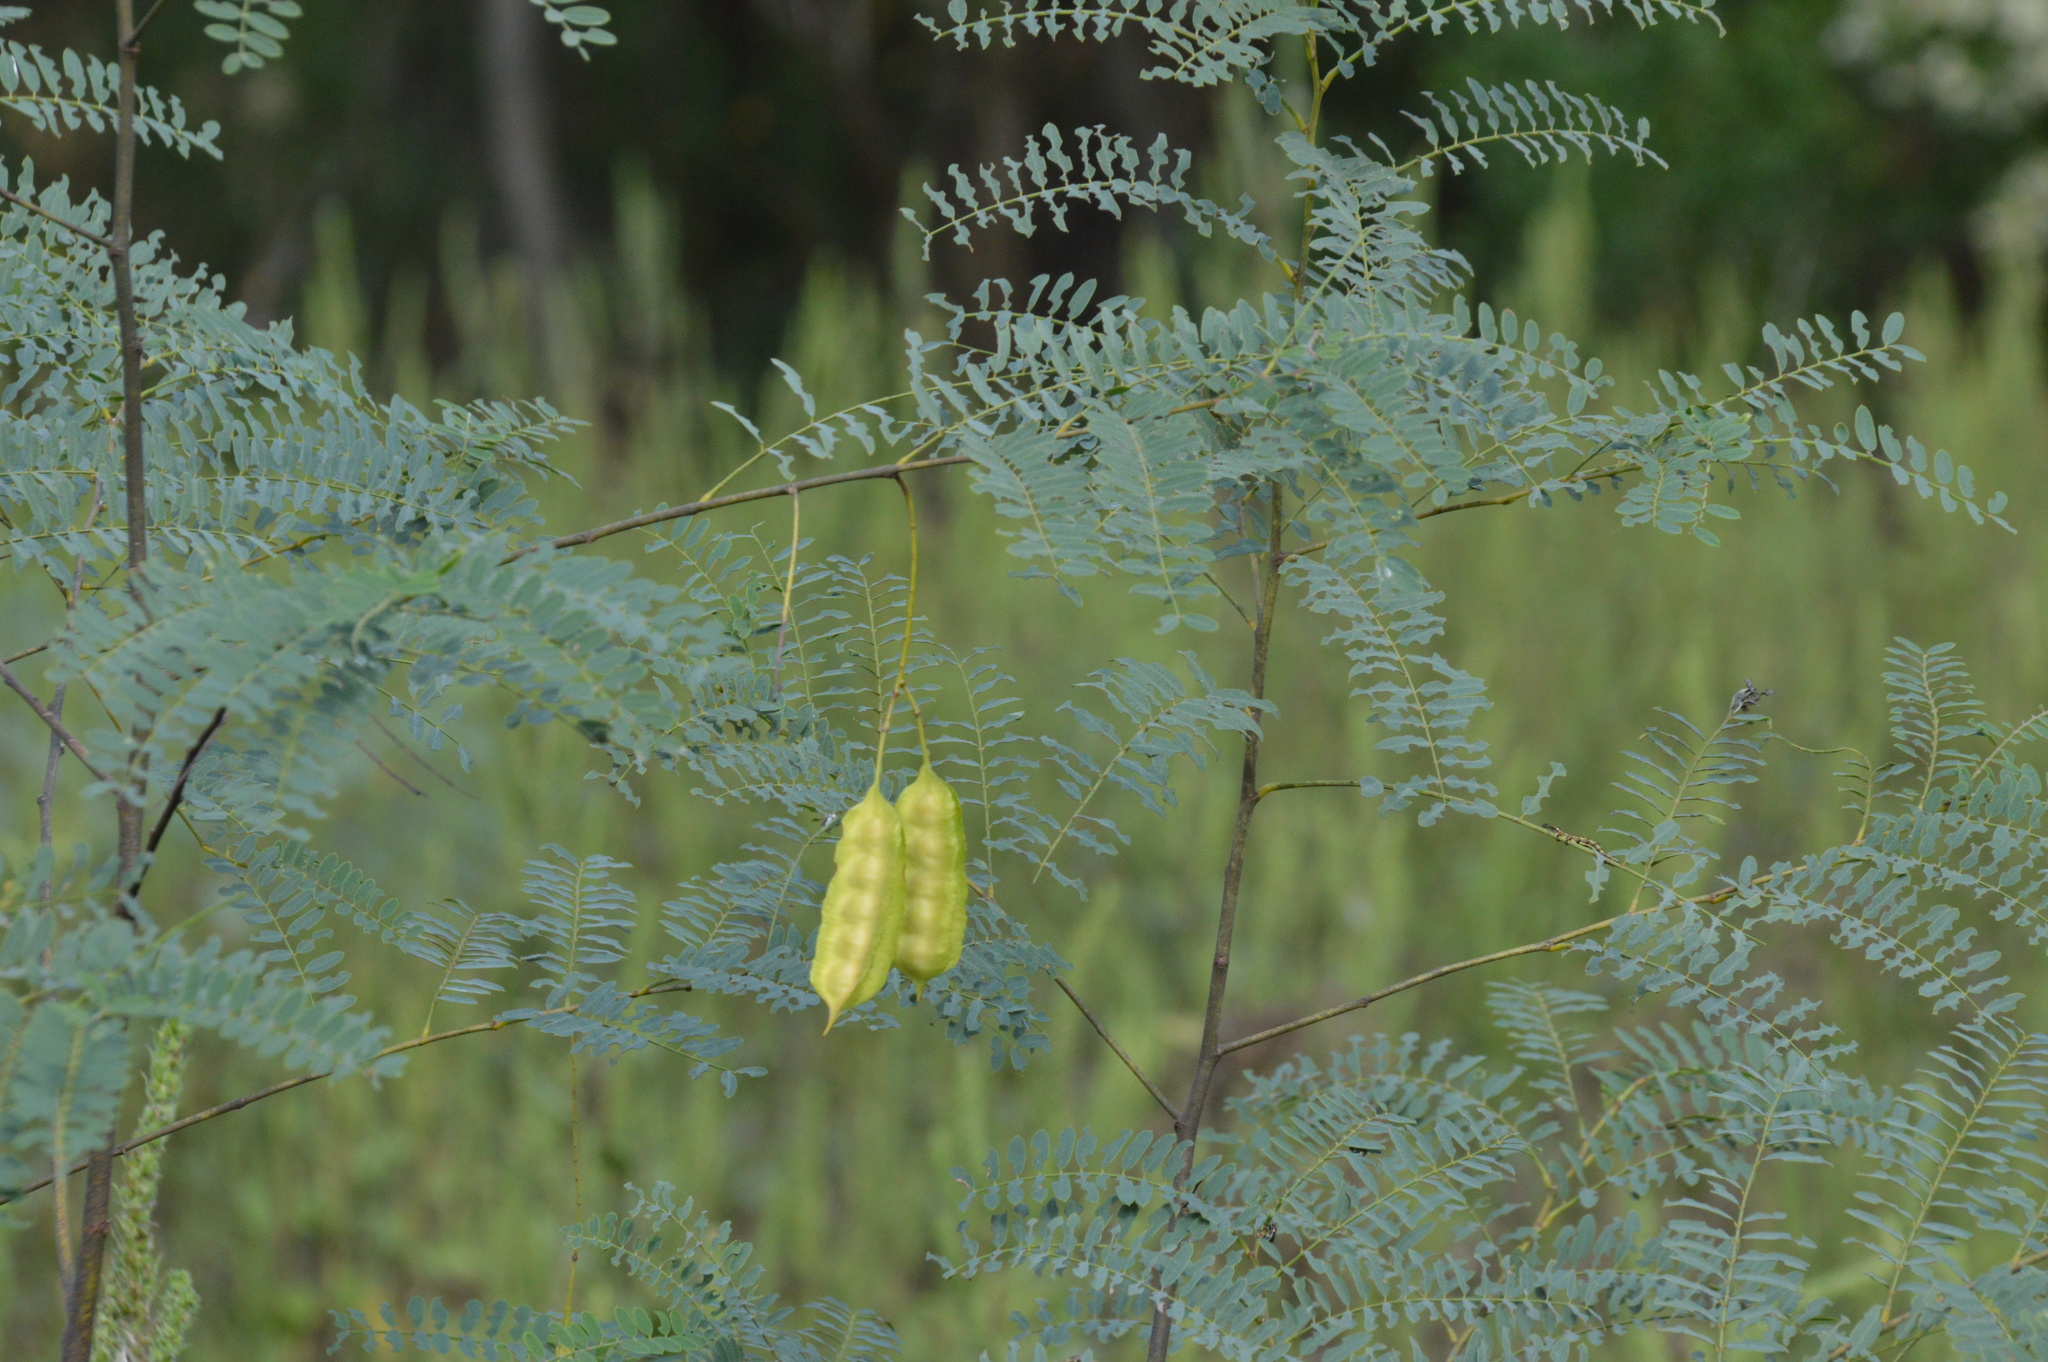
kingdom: Plantae
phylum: Tracheophyta
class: Magnoliopsida
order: Fabales
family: Fabaceae
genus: Sesbania
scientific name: Sesbania drummondii
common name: Poison-bean
